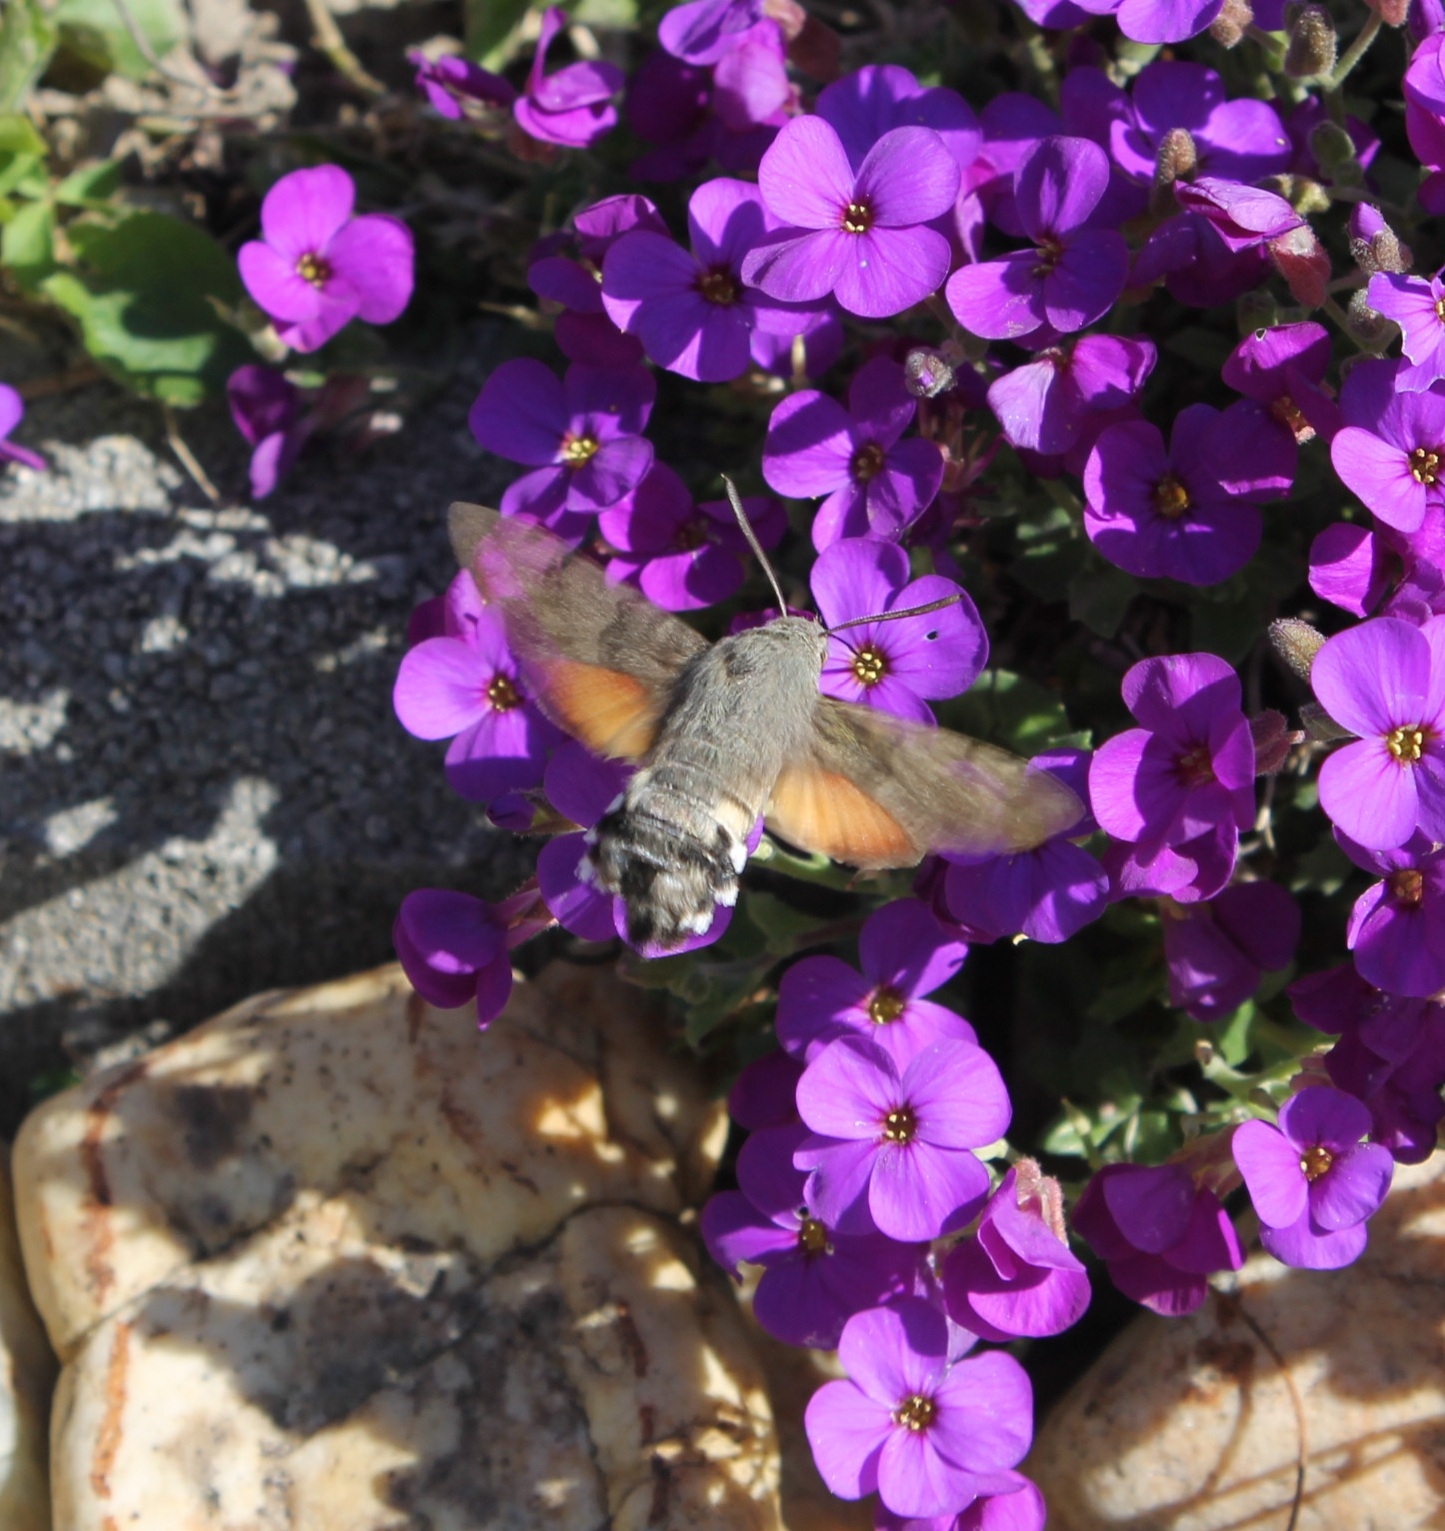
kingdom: Animalia
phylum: Arthropoda
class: Insecta
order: Lepidoptera
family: Sphingidae
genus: Macroglossum
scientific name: Macroglossum stellatarum
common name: Humming-bird hawk-moth
